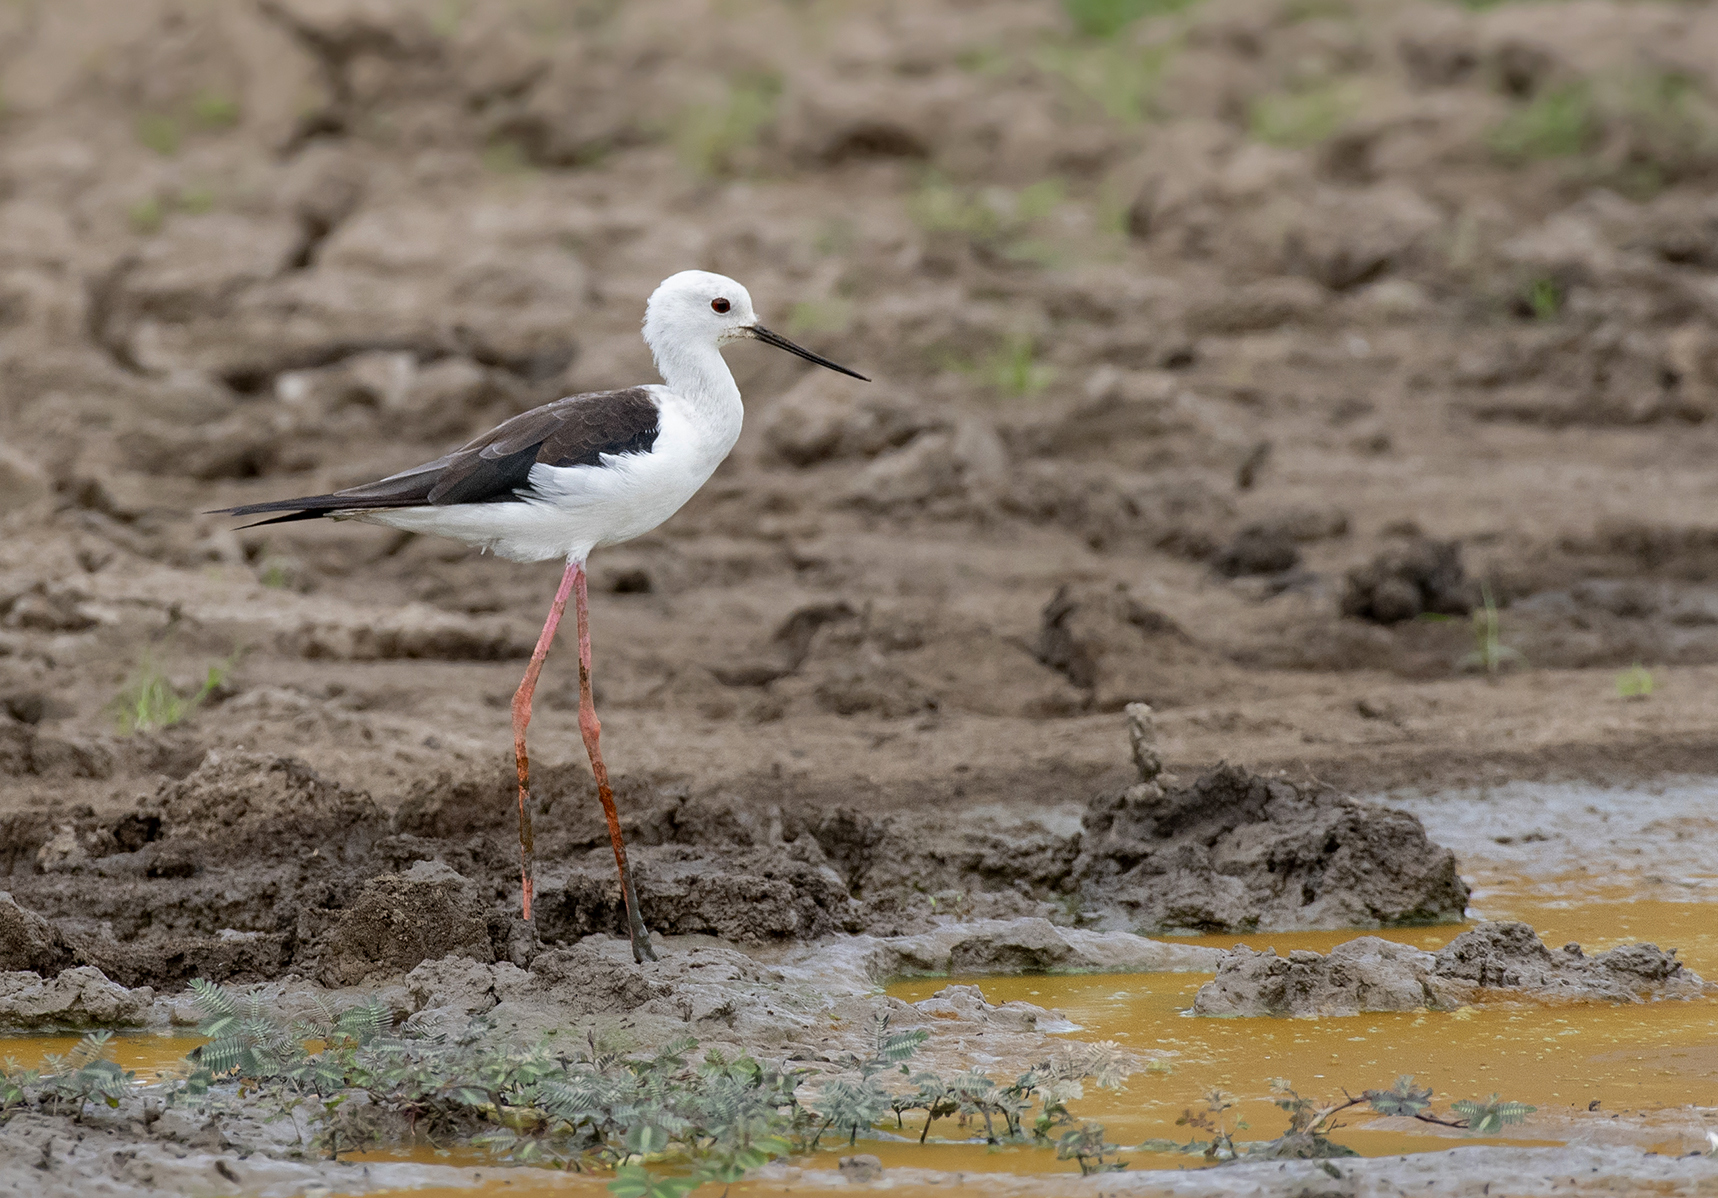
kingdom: Animalia
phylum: Chordata
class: Aves
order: Charadriiformes
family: Recurvirostridae
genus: Himantopus
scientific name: Himantopus himantopus
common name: Black-winged stilt
